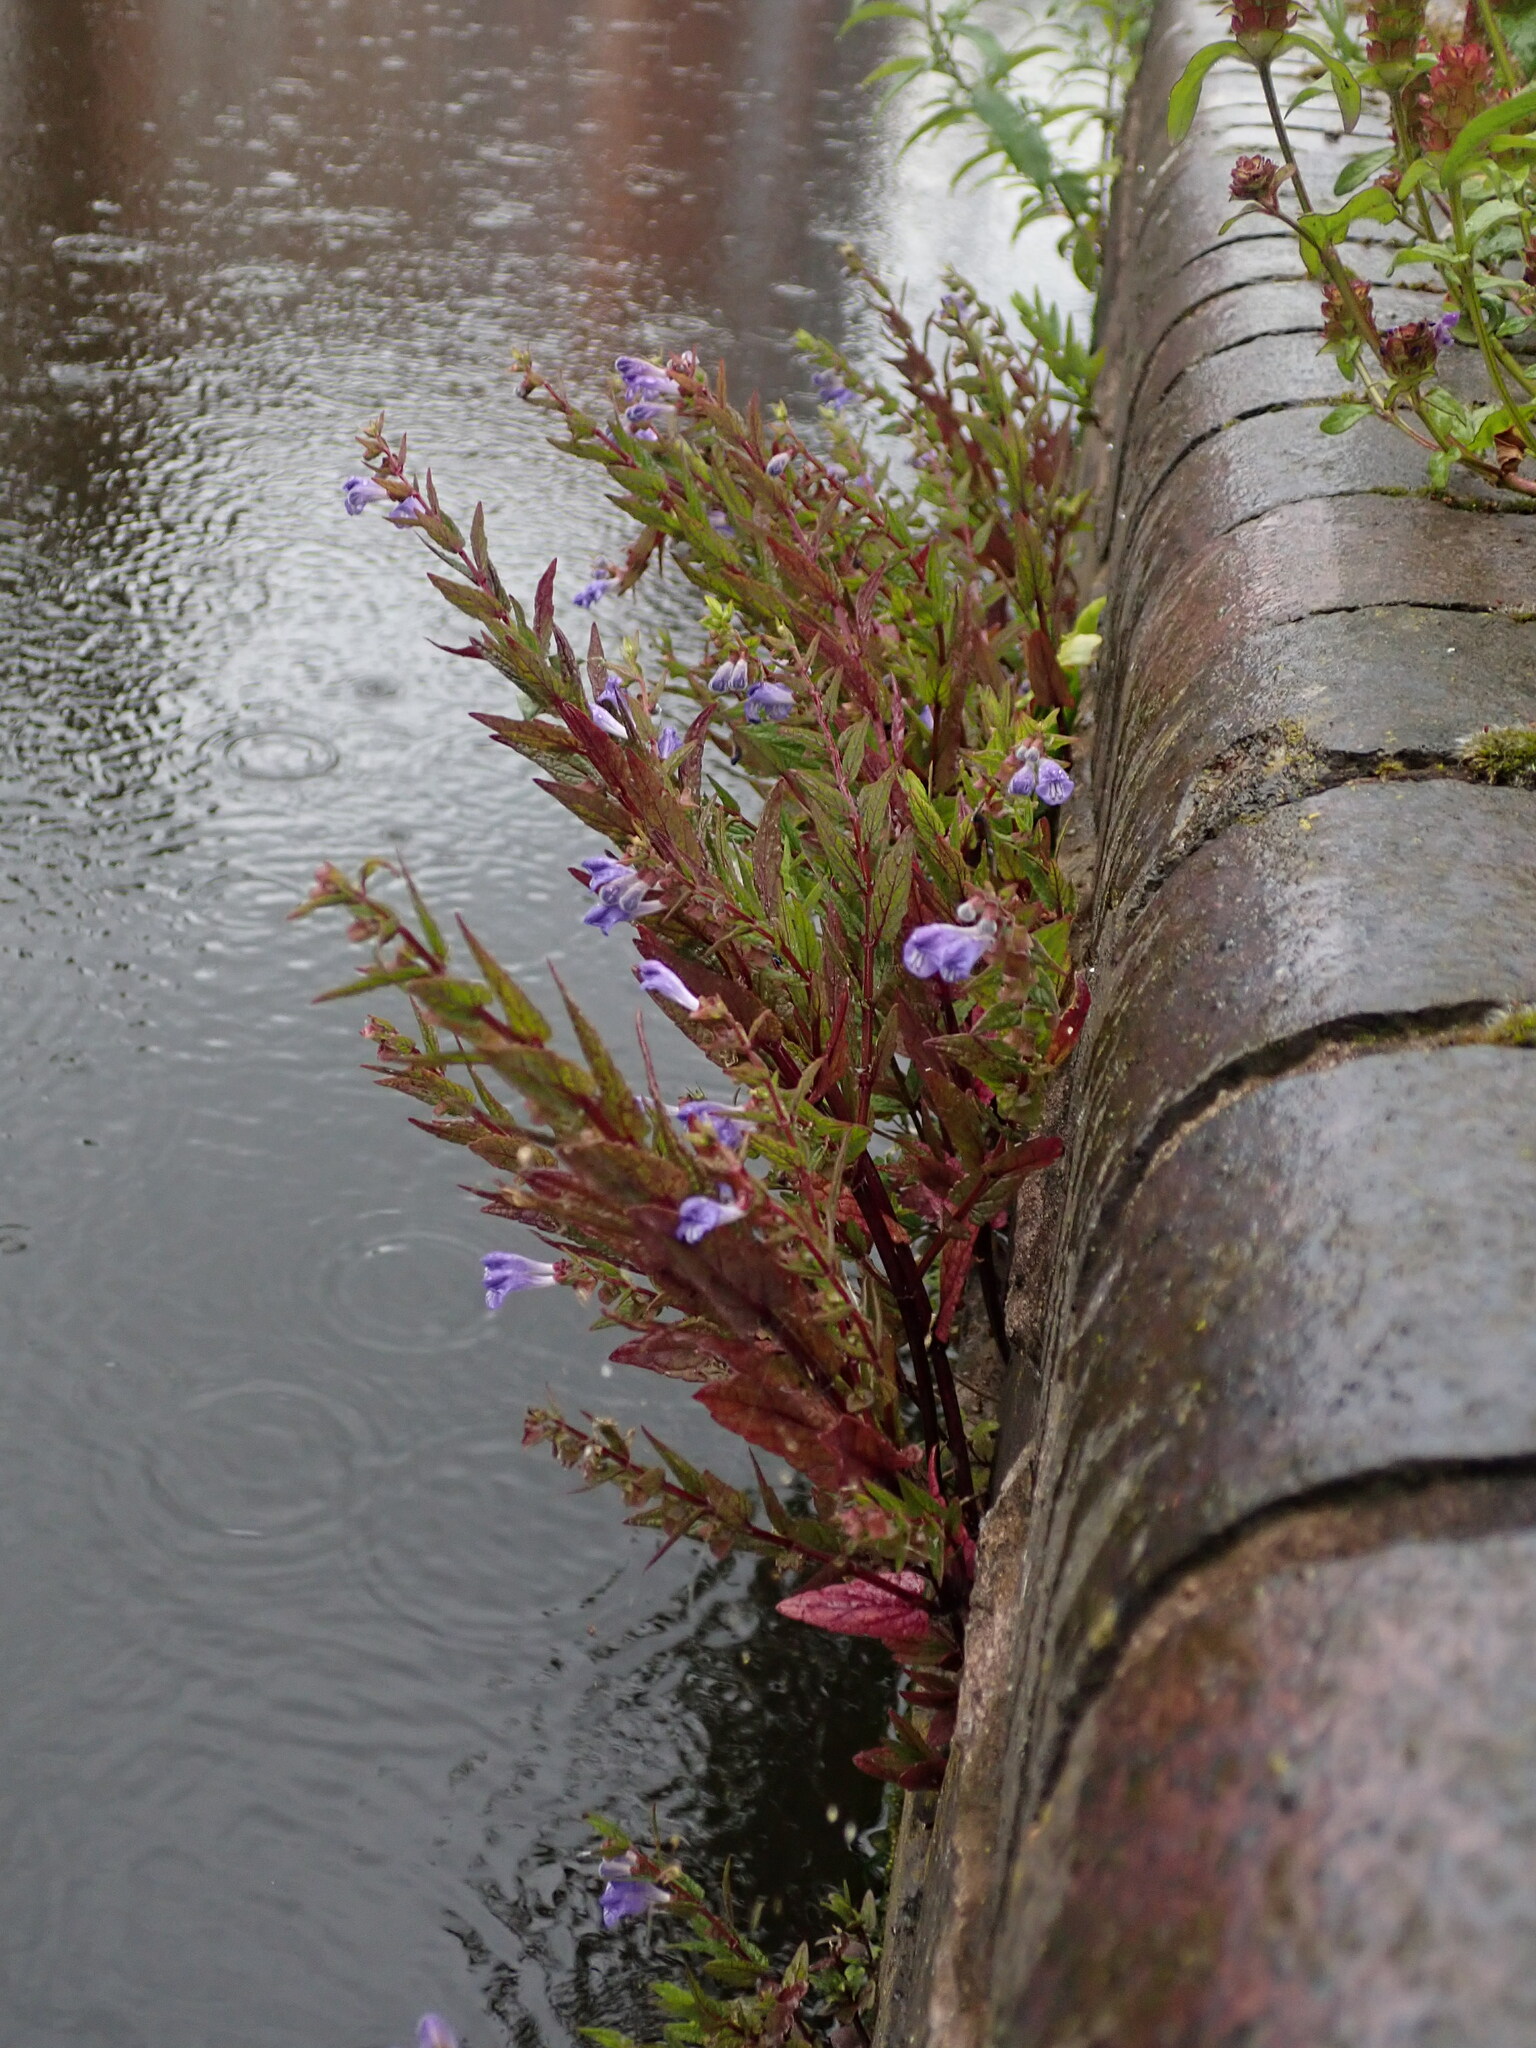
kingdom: Plantae
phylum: Tracheophyta
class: Magnoliopsida
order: Lamiales
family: Lamiaceae
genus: Scutellaria
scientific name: Scutellaria galericulata
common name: Skullcap
